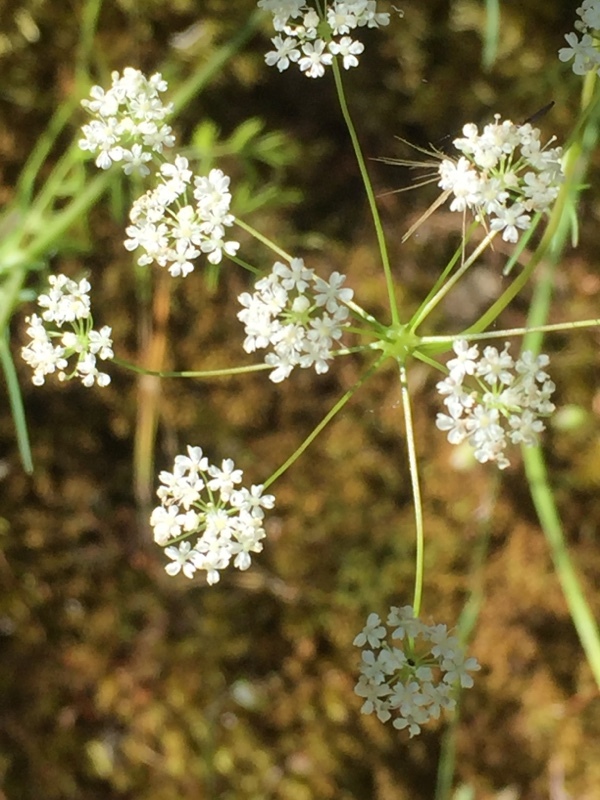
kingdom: Plantae
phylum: Tracheophyta
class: Magnoliopsida
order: Apiales
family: Apiaceae
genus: Conopodium
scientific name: Conopodium majus
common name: Pignut
